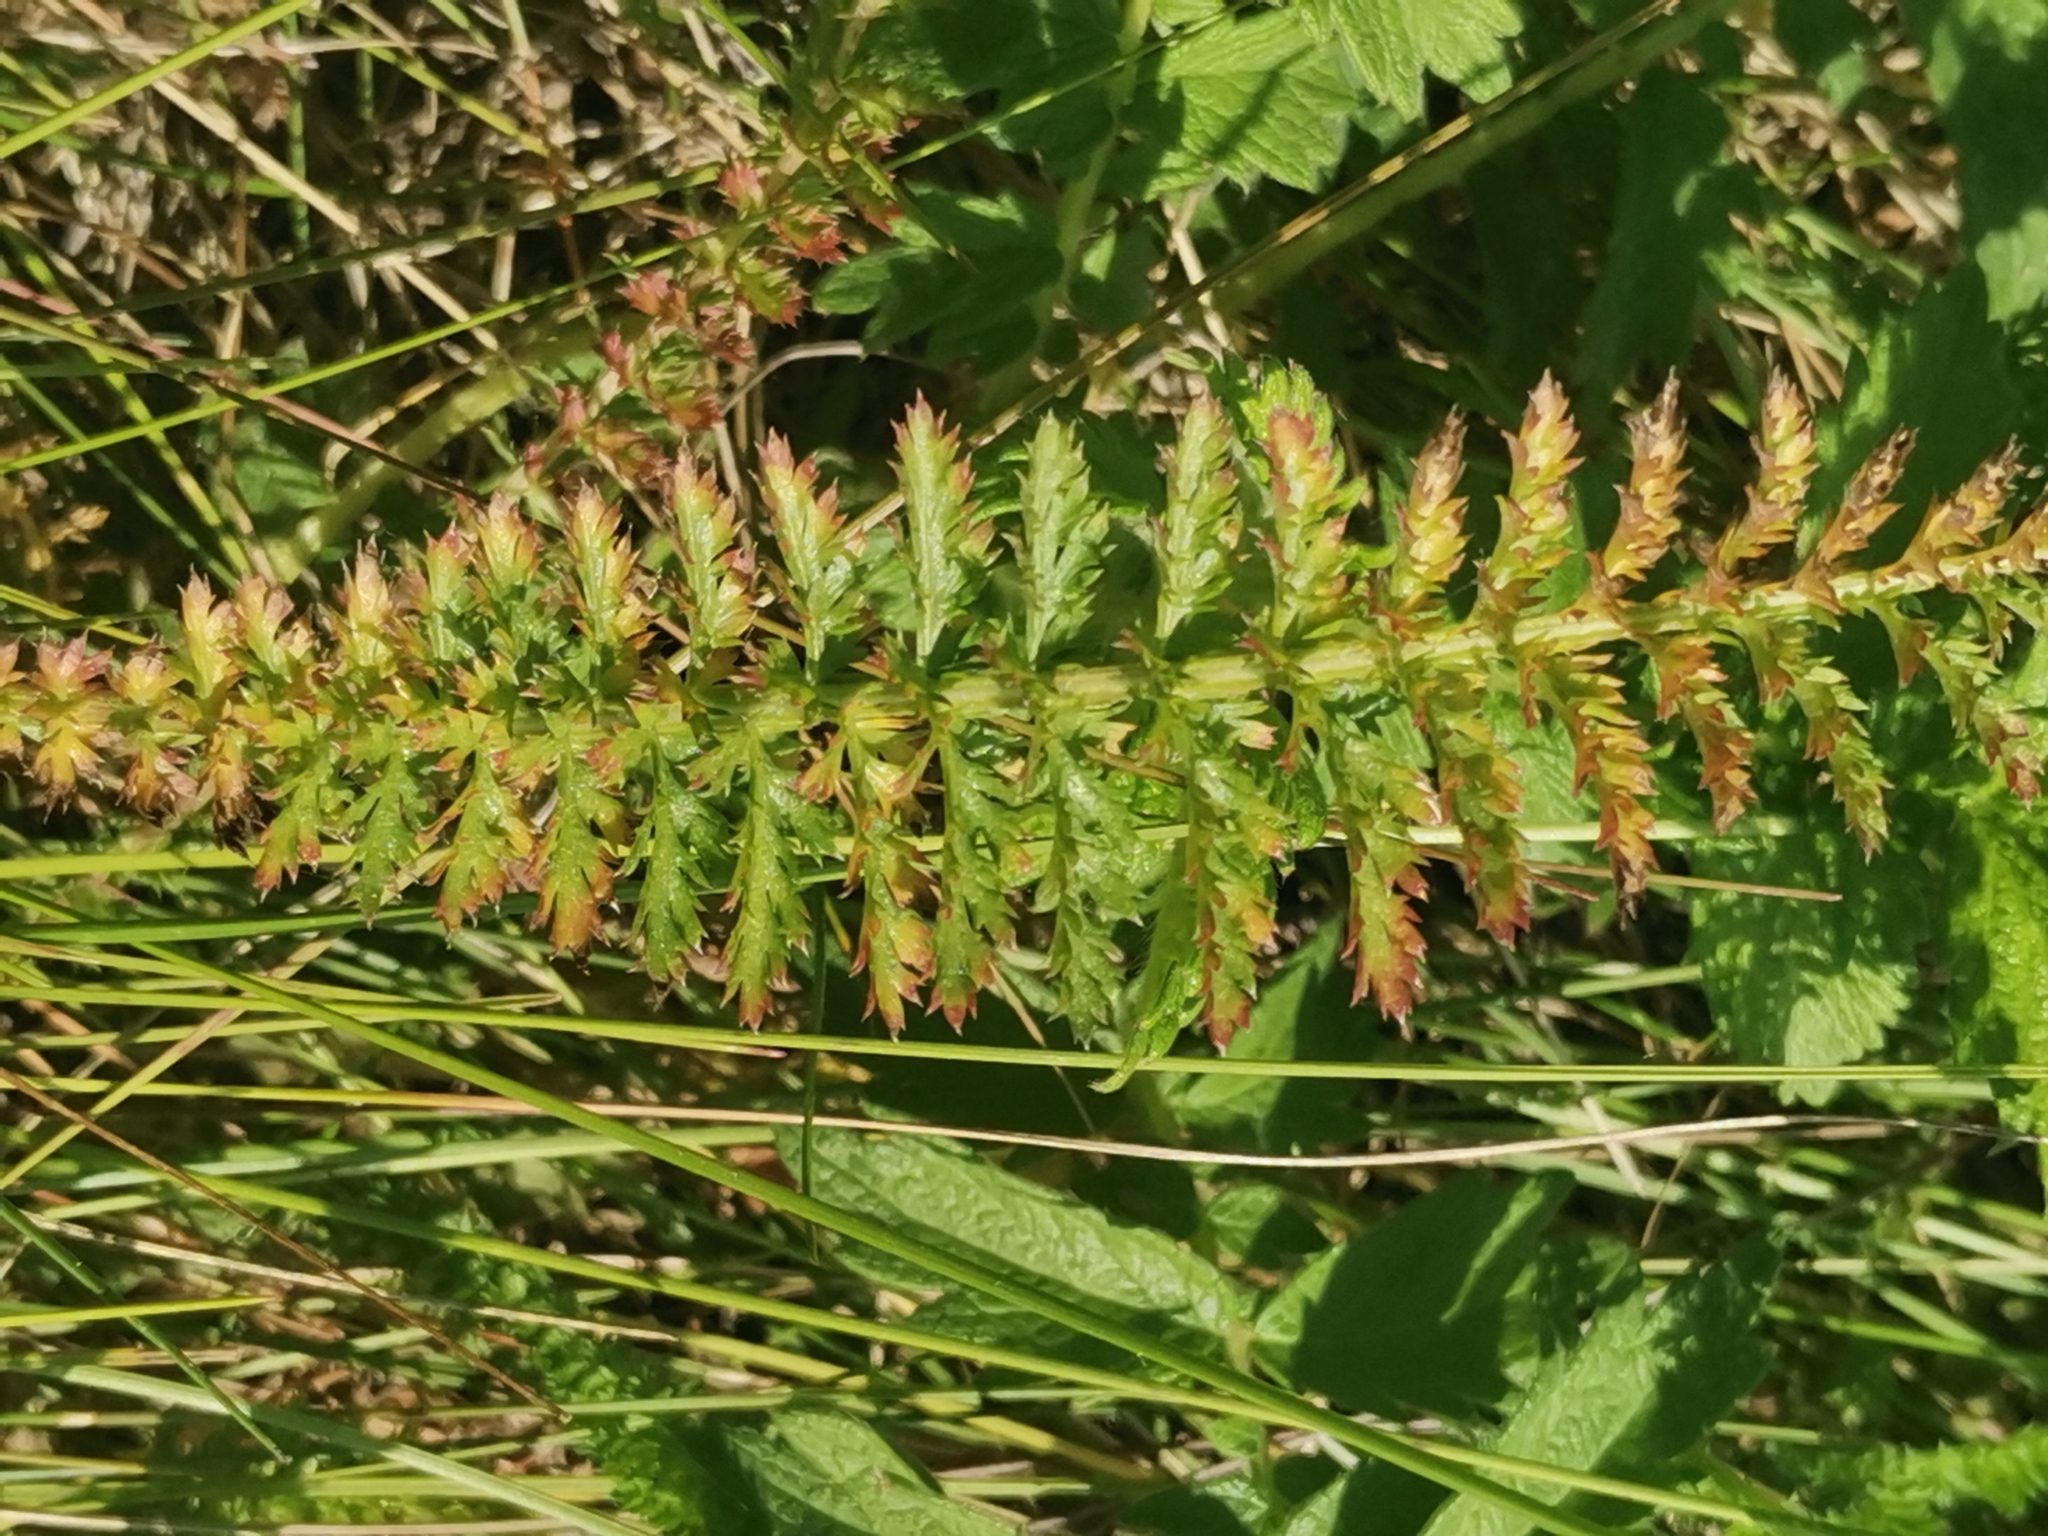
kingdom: Plantae
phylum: Tracheophyta
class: Magnoliopsida
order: Rosales
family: Rosaceae
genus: Filipendula
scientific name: Filipendula vulgaris
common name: Dropwort
